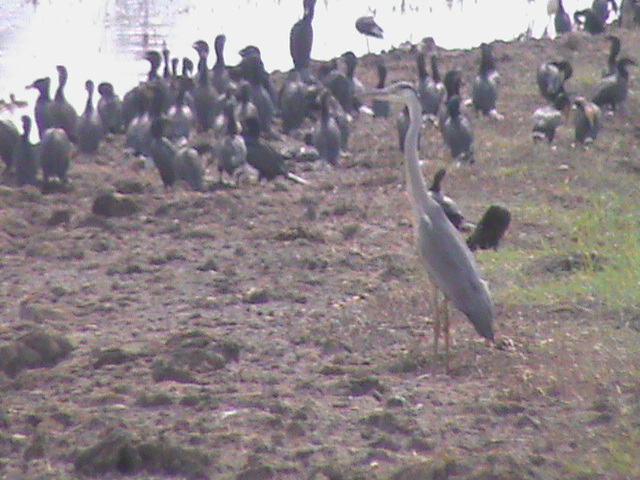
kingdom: Animalia
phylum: Chordata
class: Aves
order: Pelecaniformes
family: Ardeidae
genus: Ardea
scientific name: Ardea cinerea
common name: Grey heron
